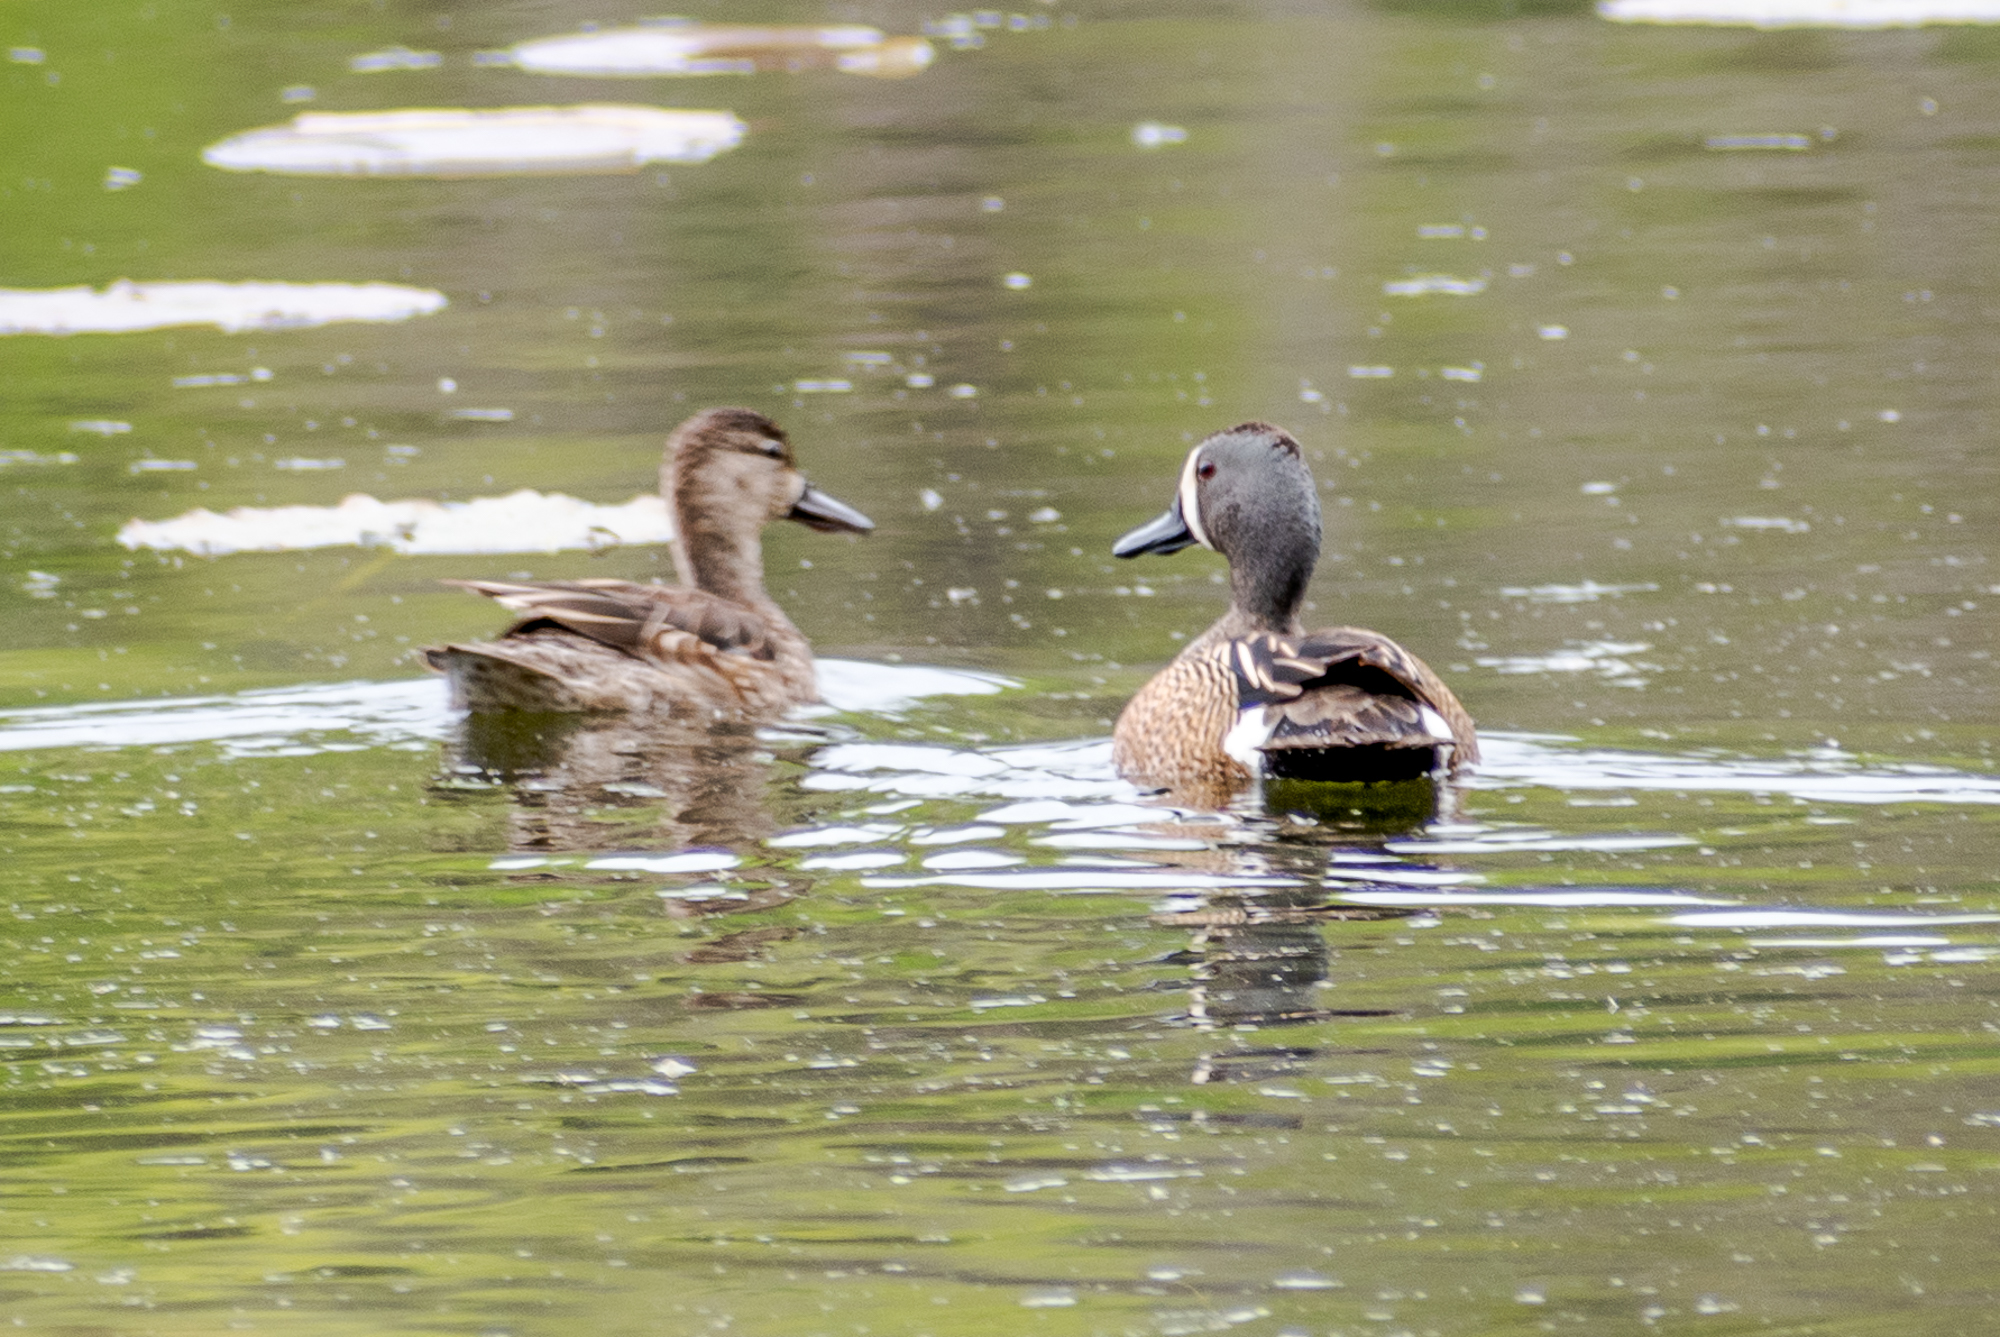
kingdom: Animalia
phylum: Chordata
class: Aves
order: Anseriformes
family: Anatidae
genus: Spatula
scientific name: Spatula discors
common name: Blue-winged teal
